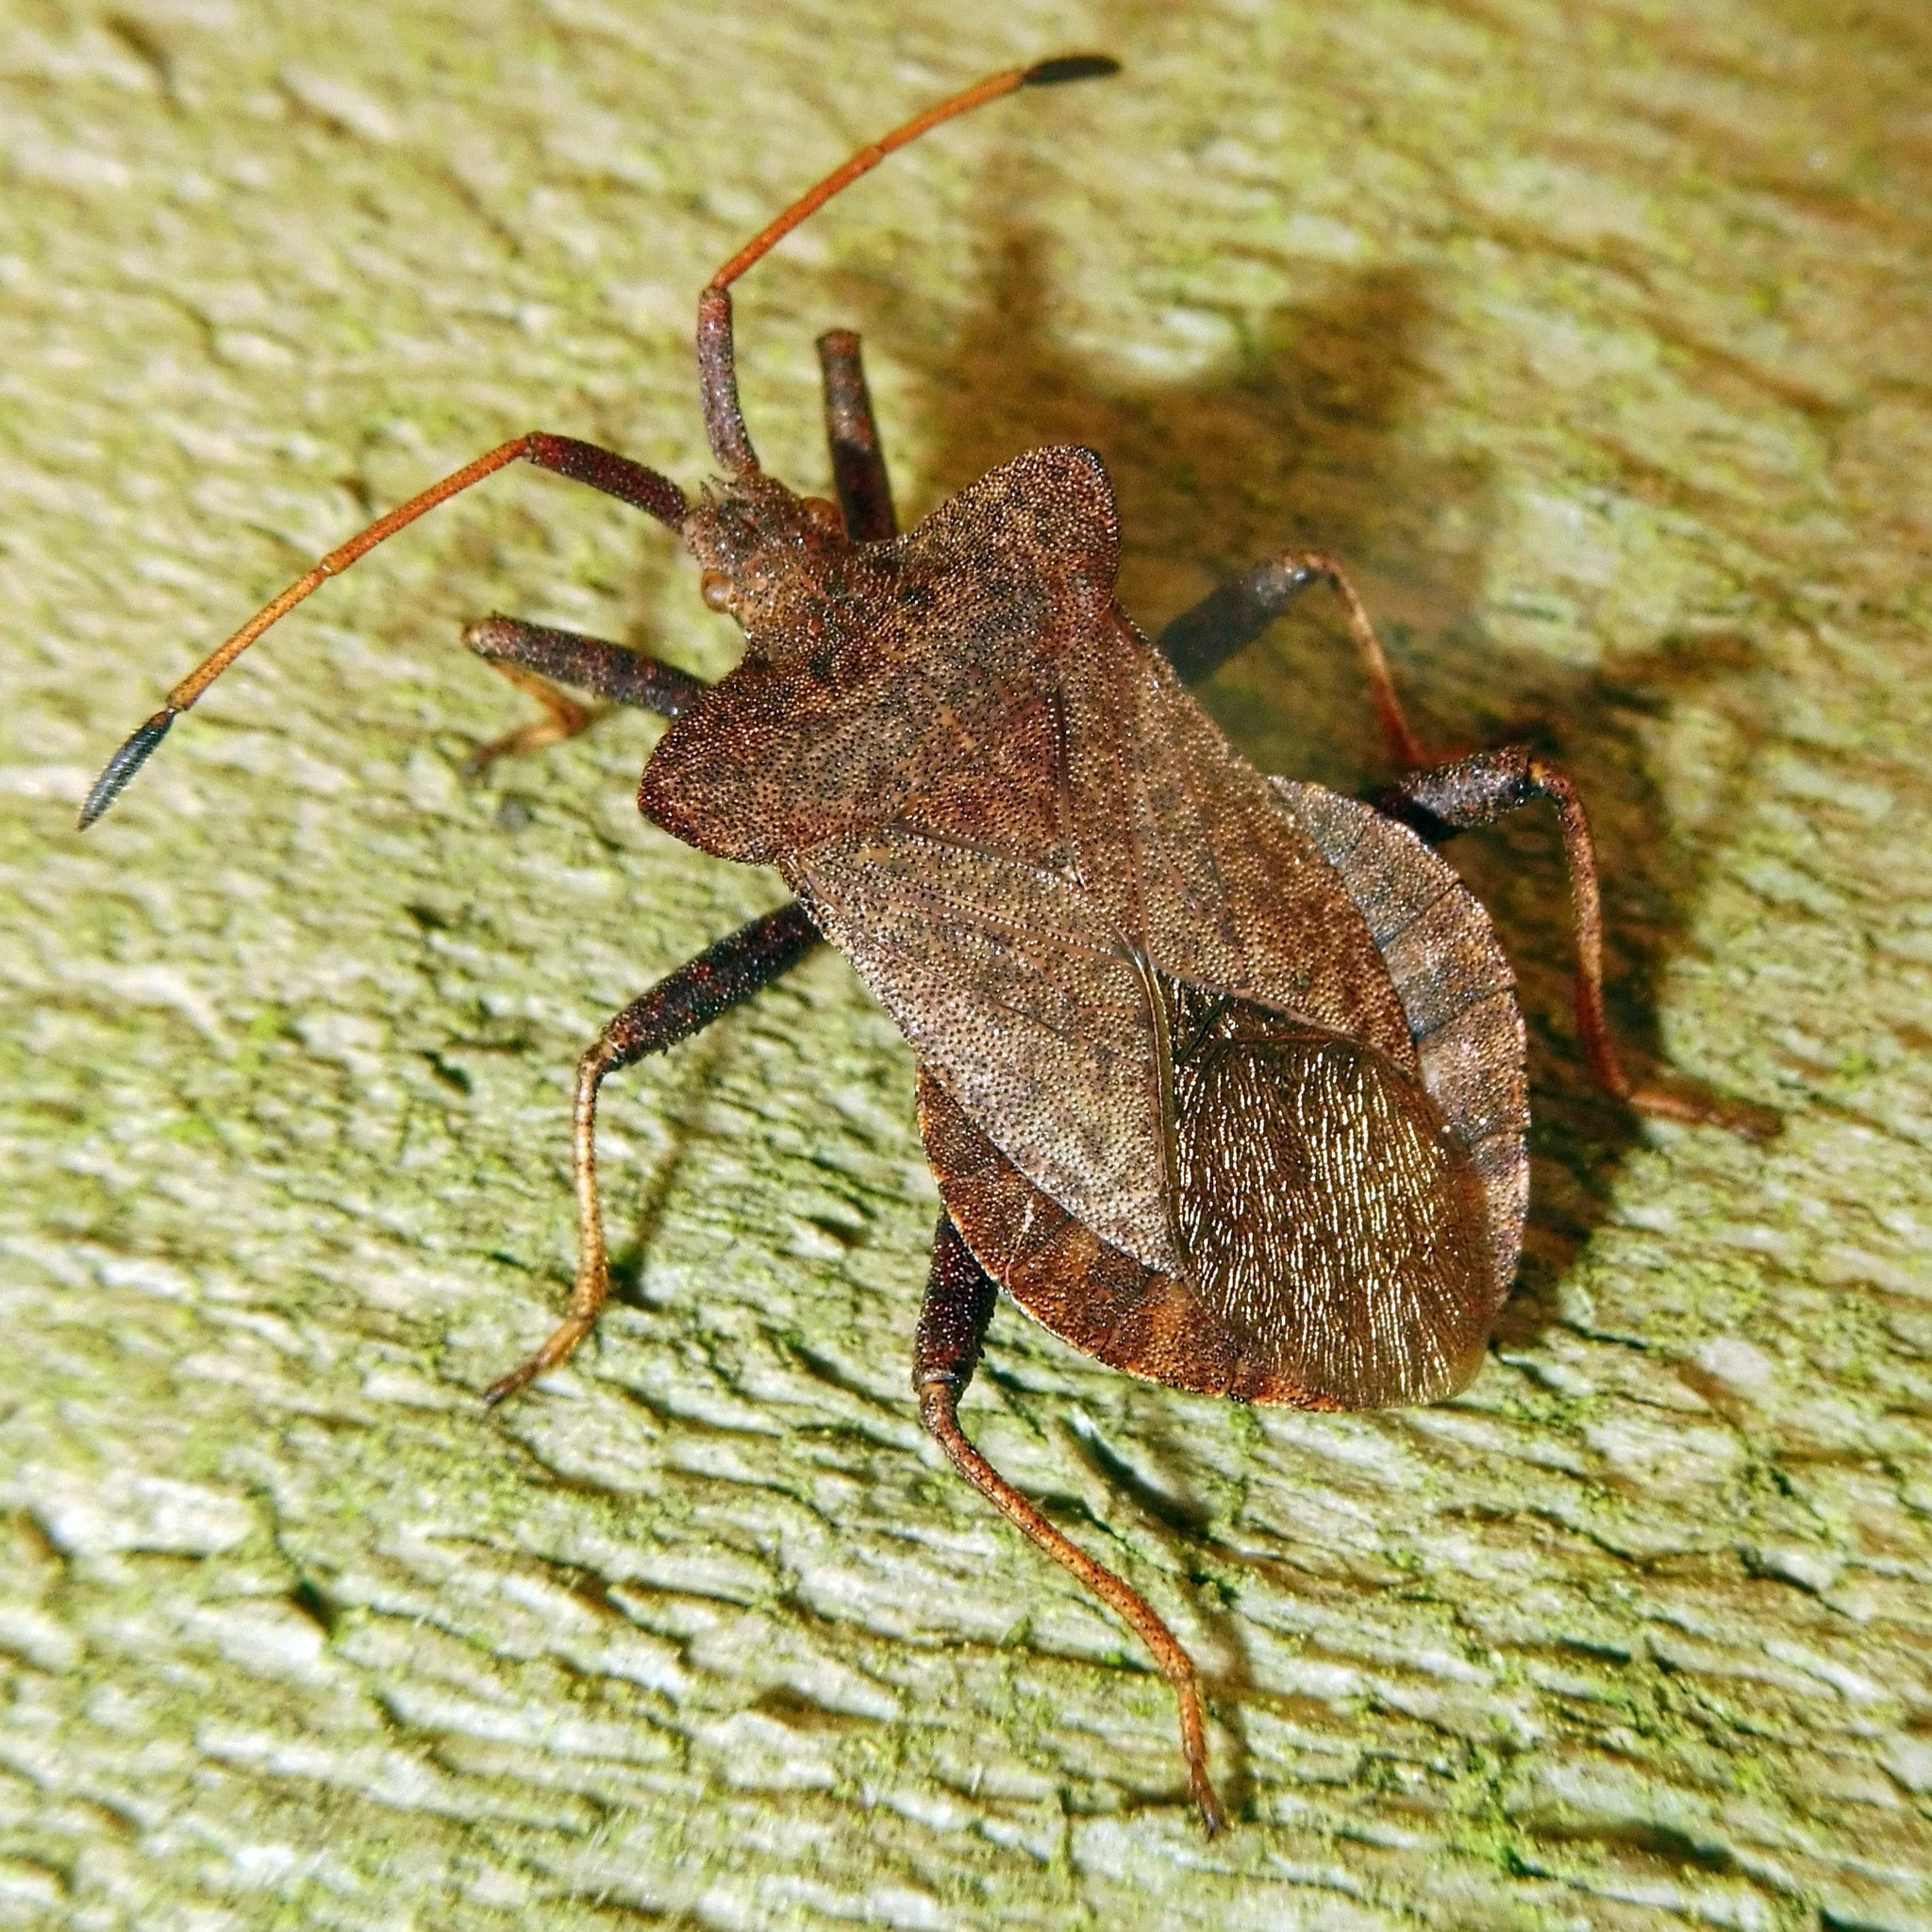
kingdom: Animalia
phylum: Arthropoda
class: Insecta
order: Hemiptera
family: Coreidae
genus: Coreus
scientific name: Coreus marginatus
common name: Dock bug
